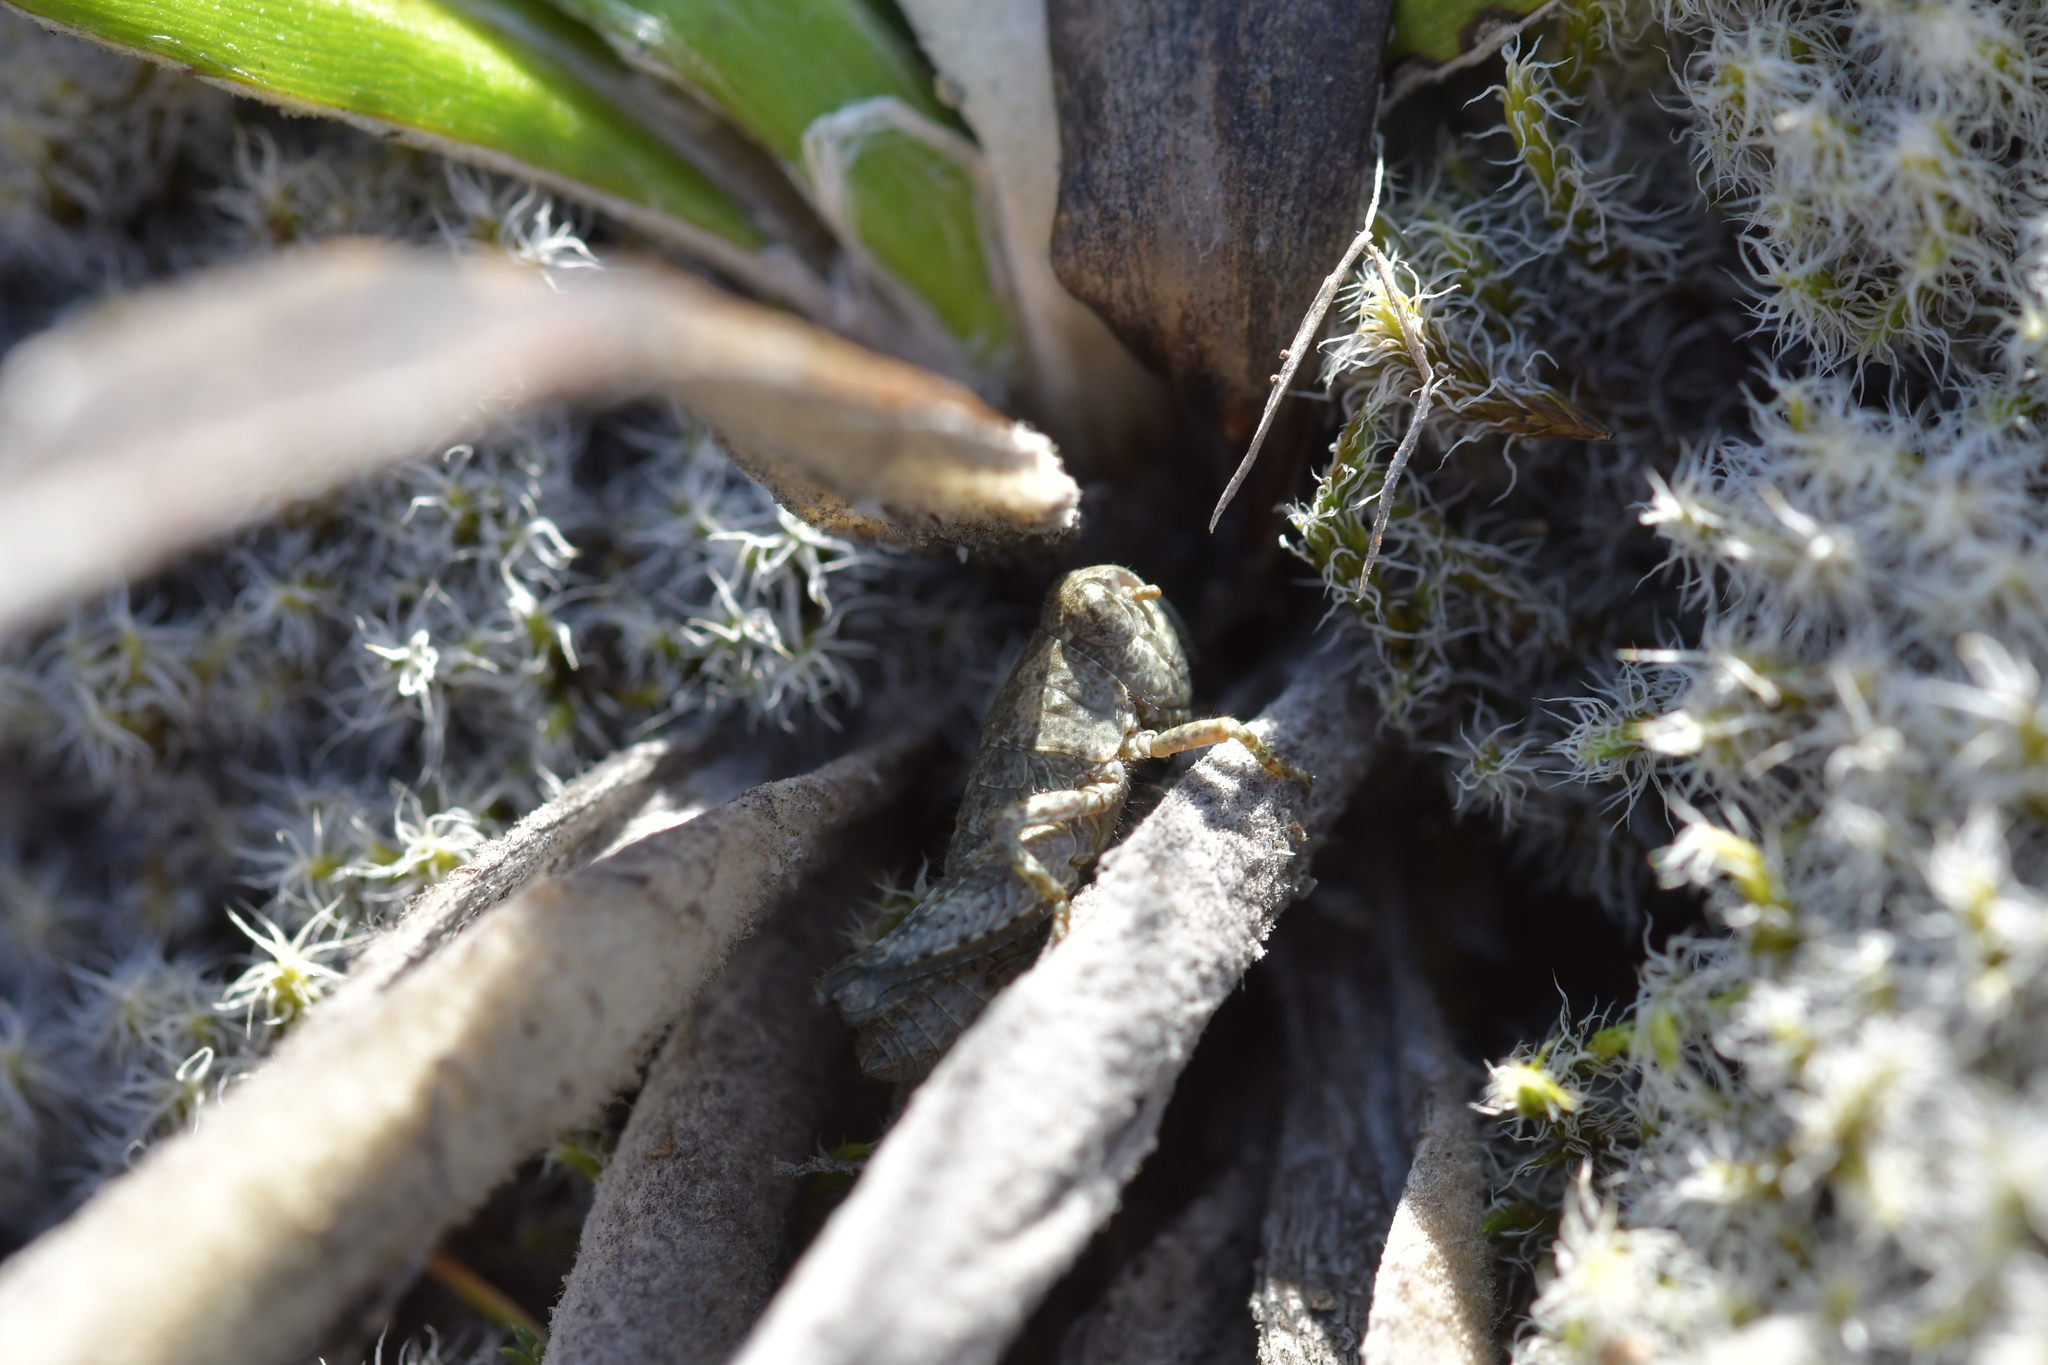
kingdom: Animalia
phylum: Arthropoda
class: Insecta
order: Orthoptera
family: Acrididae
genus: Sigaus
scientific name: Sigaus
